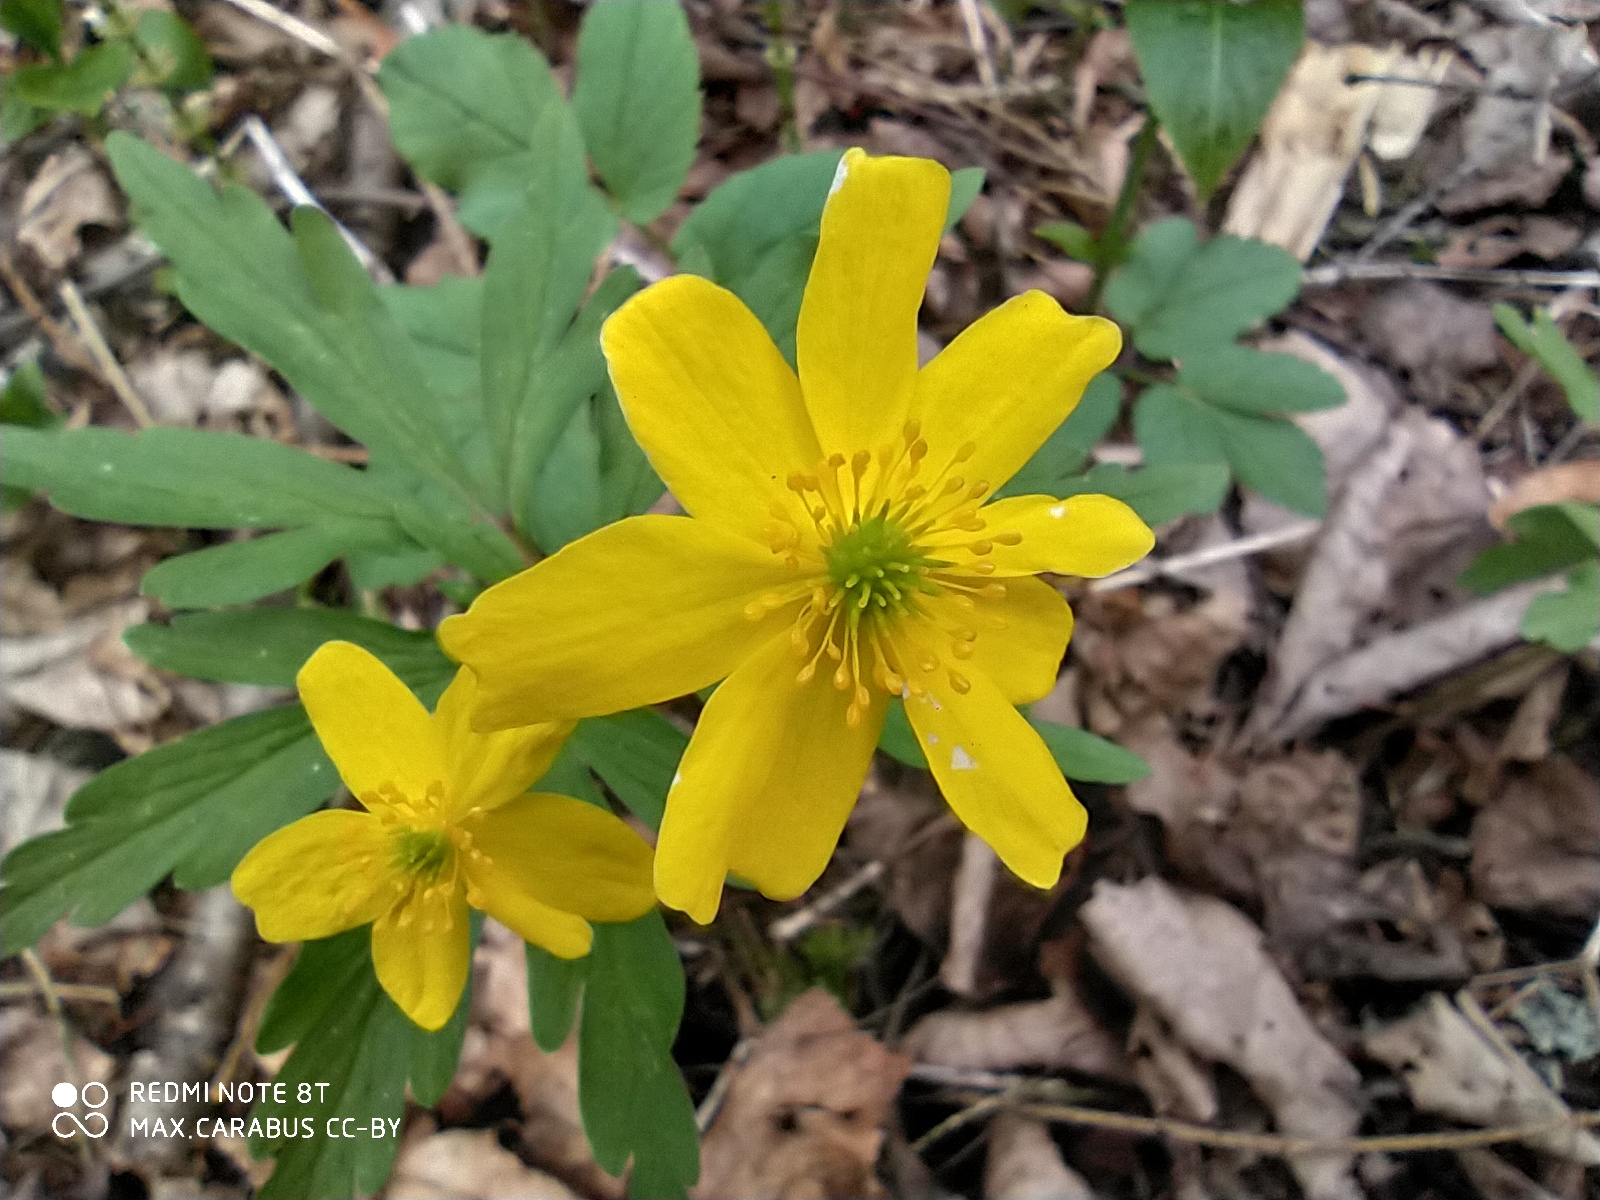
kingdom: Plantae
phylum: Tracheophyta
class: Magnoliopsida
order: Ranunculales
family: Ranunculaceae
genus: Anemone
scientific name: Anemone ranunculoides
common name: Yellow anemone
